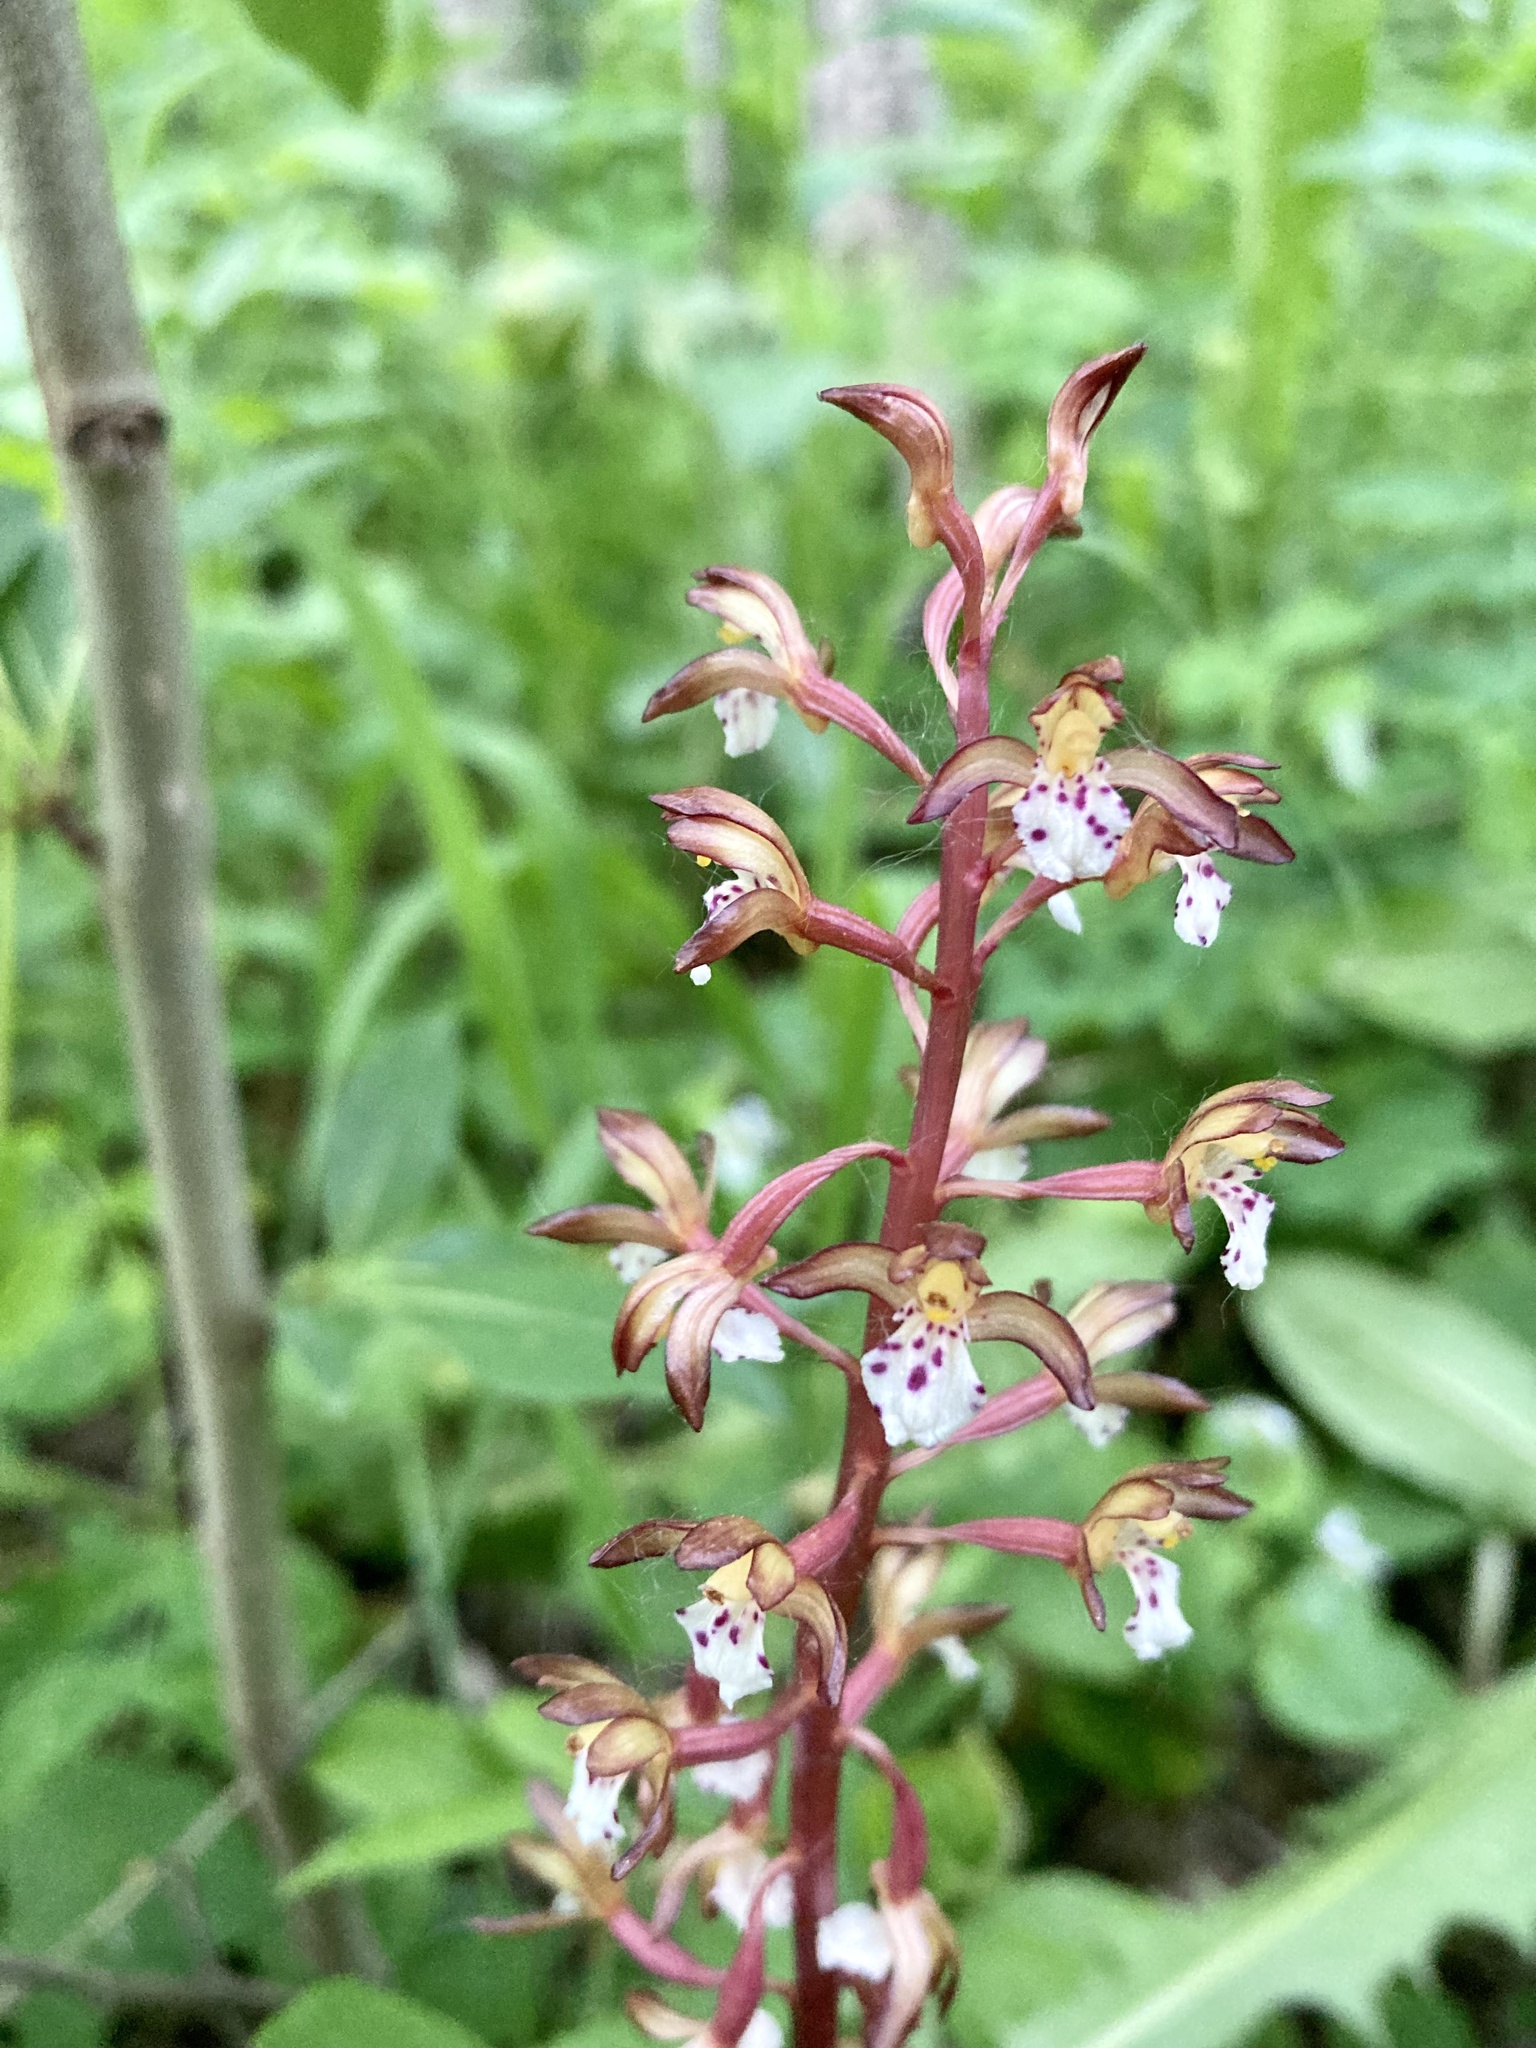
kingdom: Plantae
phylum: Tracheophyta
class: Liliopsida
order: Asparagales
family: Orchidaceae
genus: Corallorhiza
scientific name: Corallorhiza maculata
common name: Spotted coralroot
